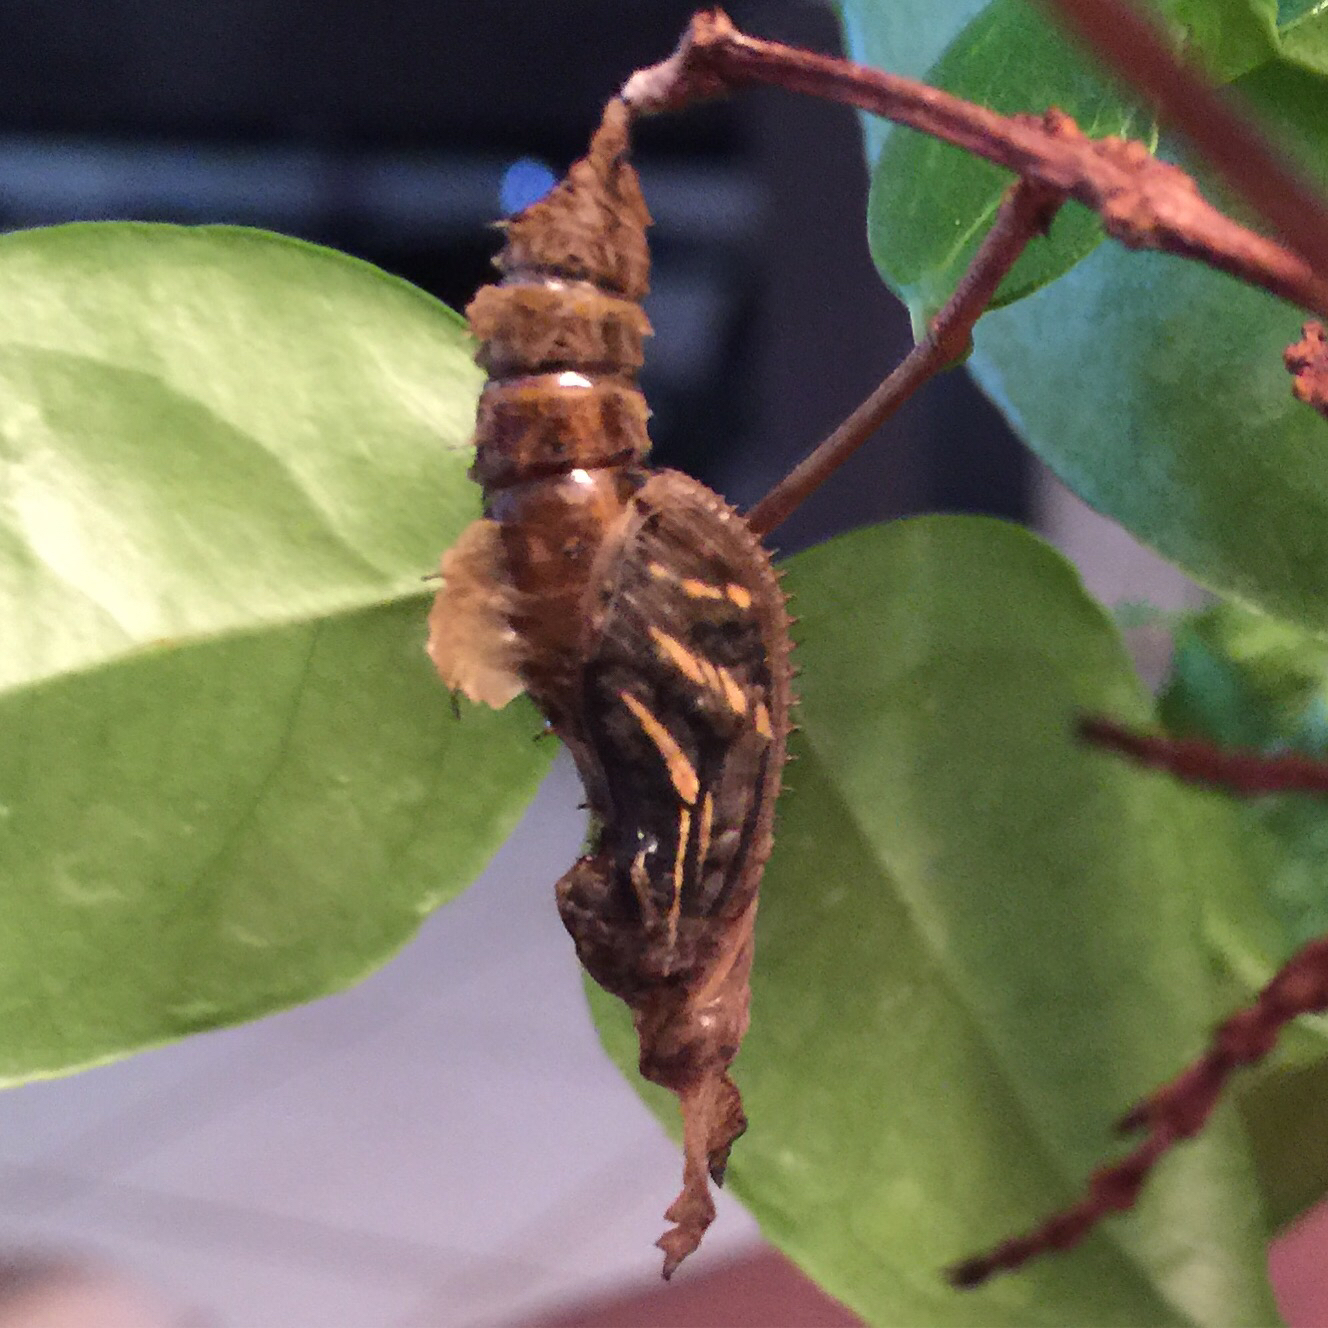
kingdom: Animalia
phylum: Arthropoda
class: Insecta
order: Lepidoptera
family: Nymphalidae
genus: Heliconius
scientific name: Heliconius charithonia
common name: Zebra long wing
